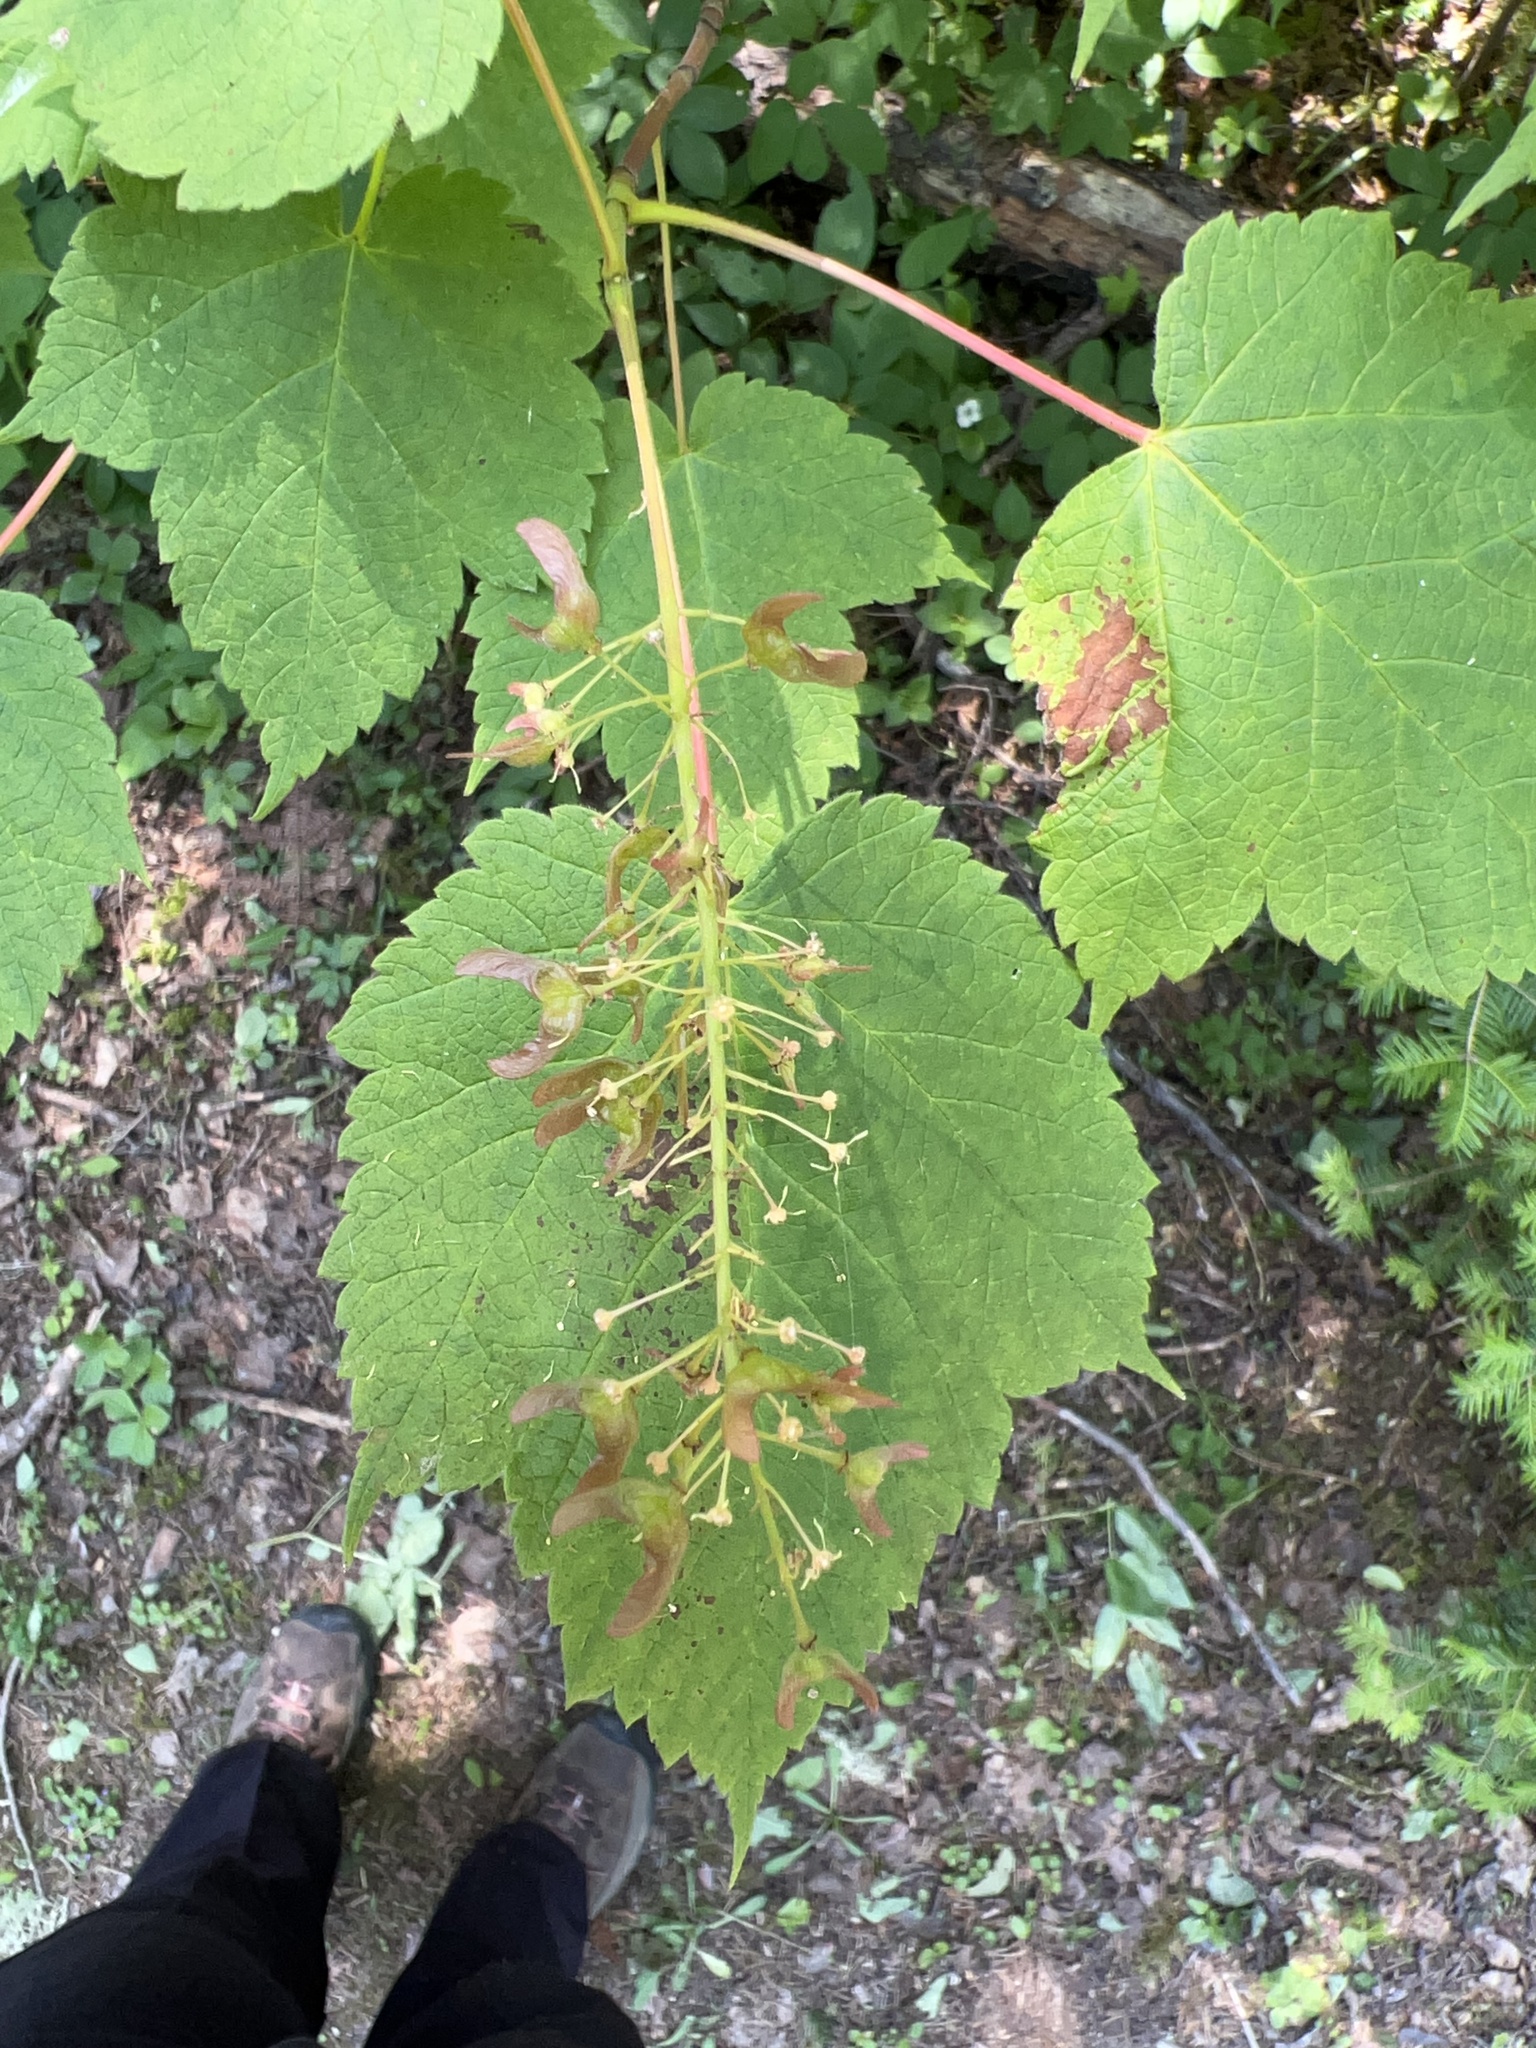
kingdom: Plantae
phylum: Tracheophyta
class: Magnoliopsida
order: Sapindales
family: Sapindaceae
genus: Acer
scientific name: Acer spicatum
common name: Mountain maple
